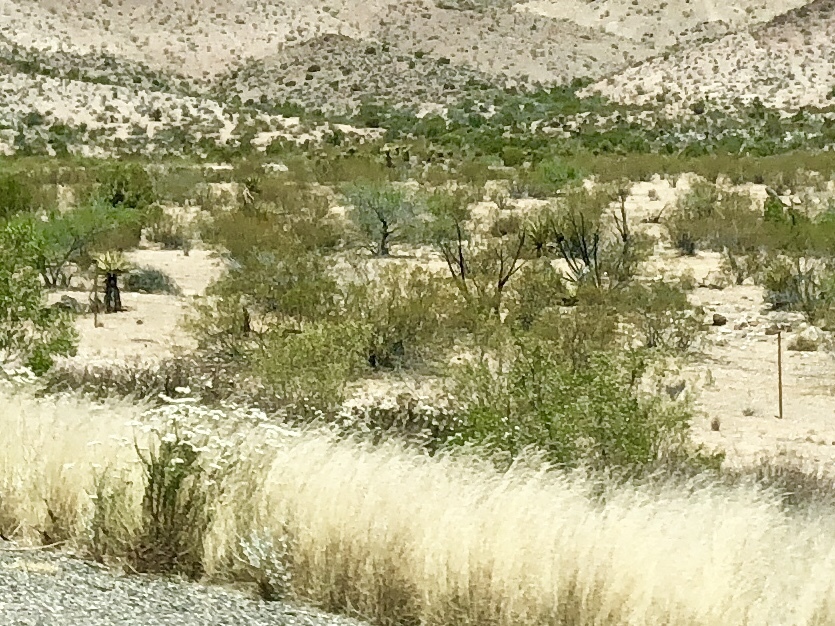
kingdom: Plantae
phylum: Tracheophyta
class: Magnoliopsida
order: Zygophyllales
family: Zygophyllaceae
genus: Larrea
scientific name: Larrea tridentata
